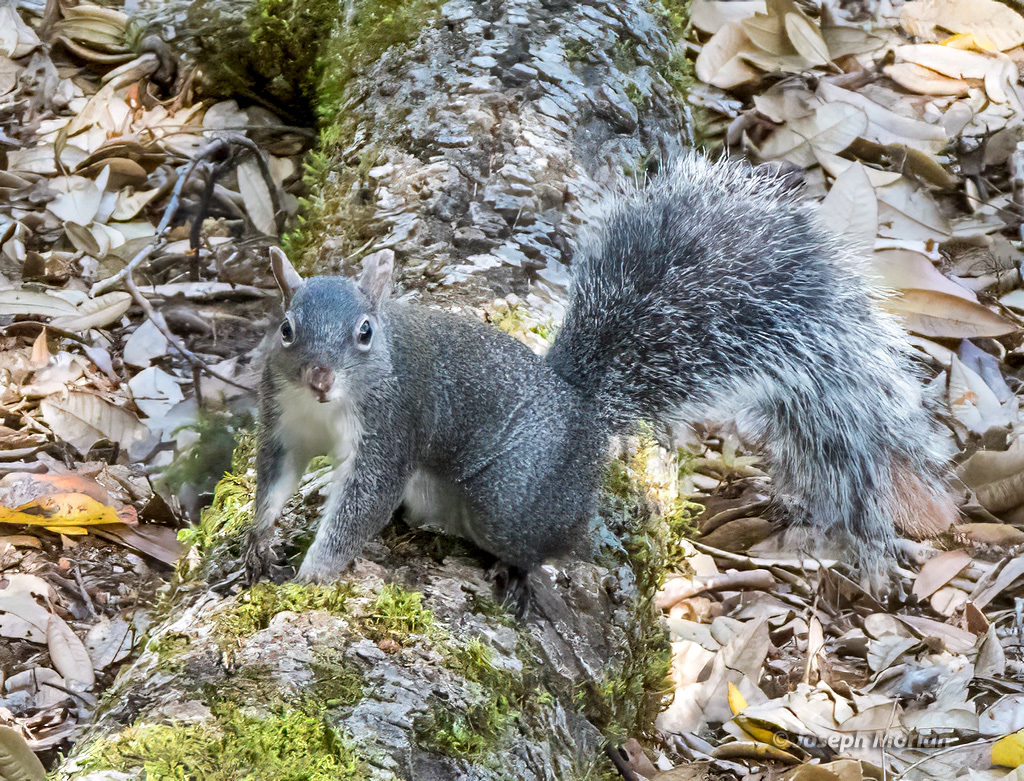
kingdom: Animalia
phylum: Chordata
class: Mammalia
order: Rodentia
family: Sciuridae
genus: Sciurus
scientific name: Sciurus griseus
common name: Western gray squirrel
